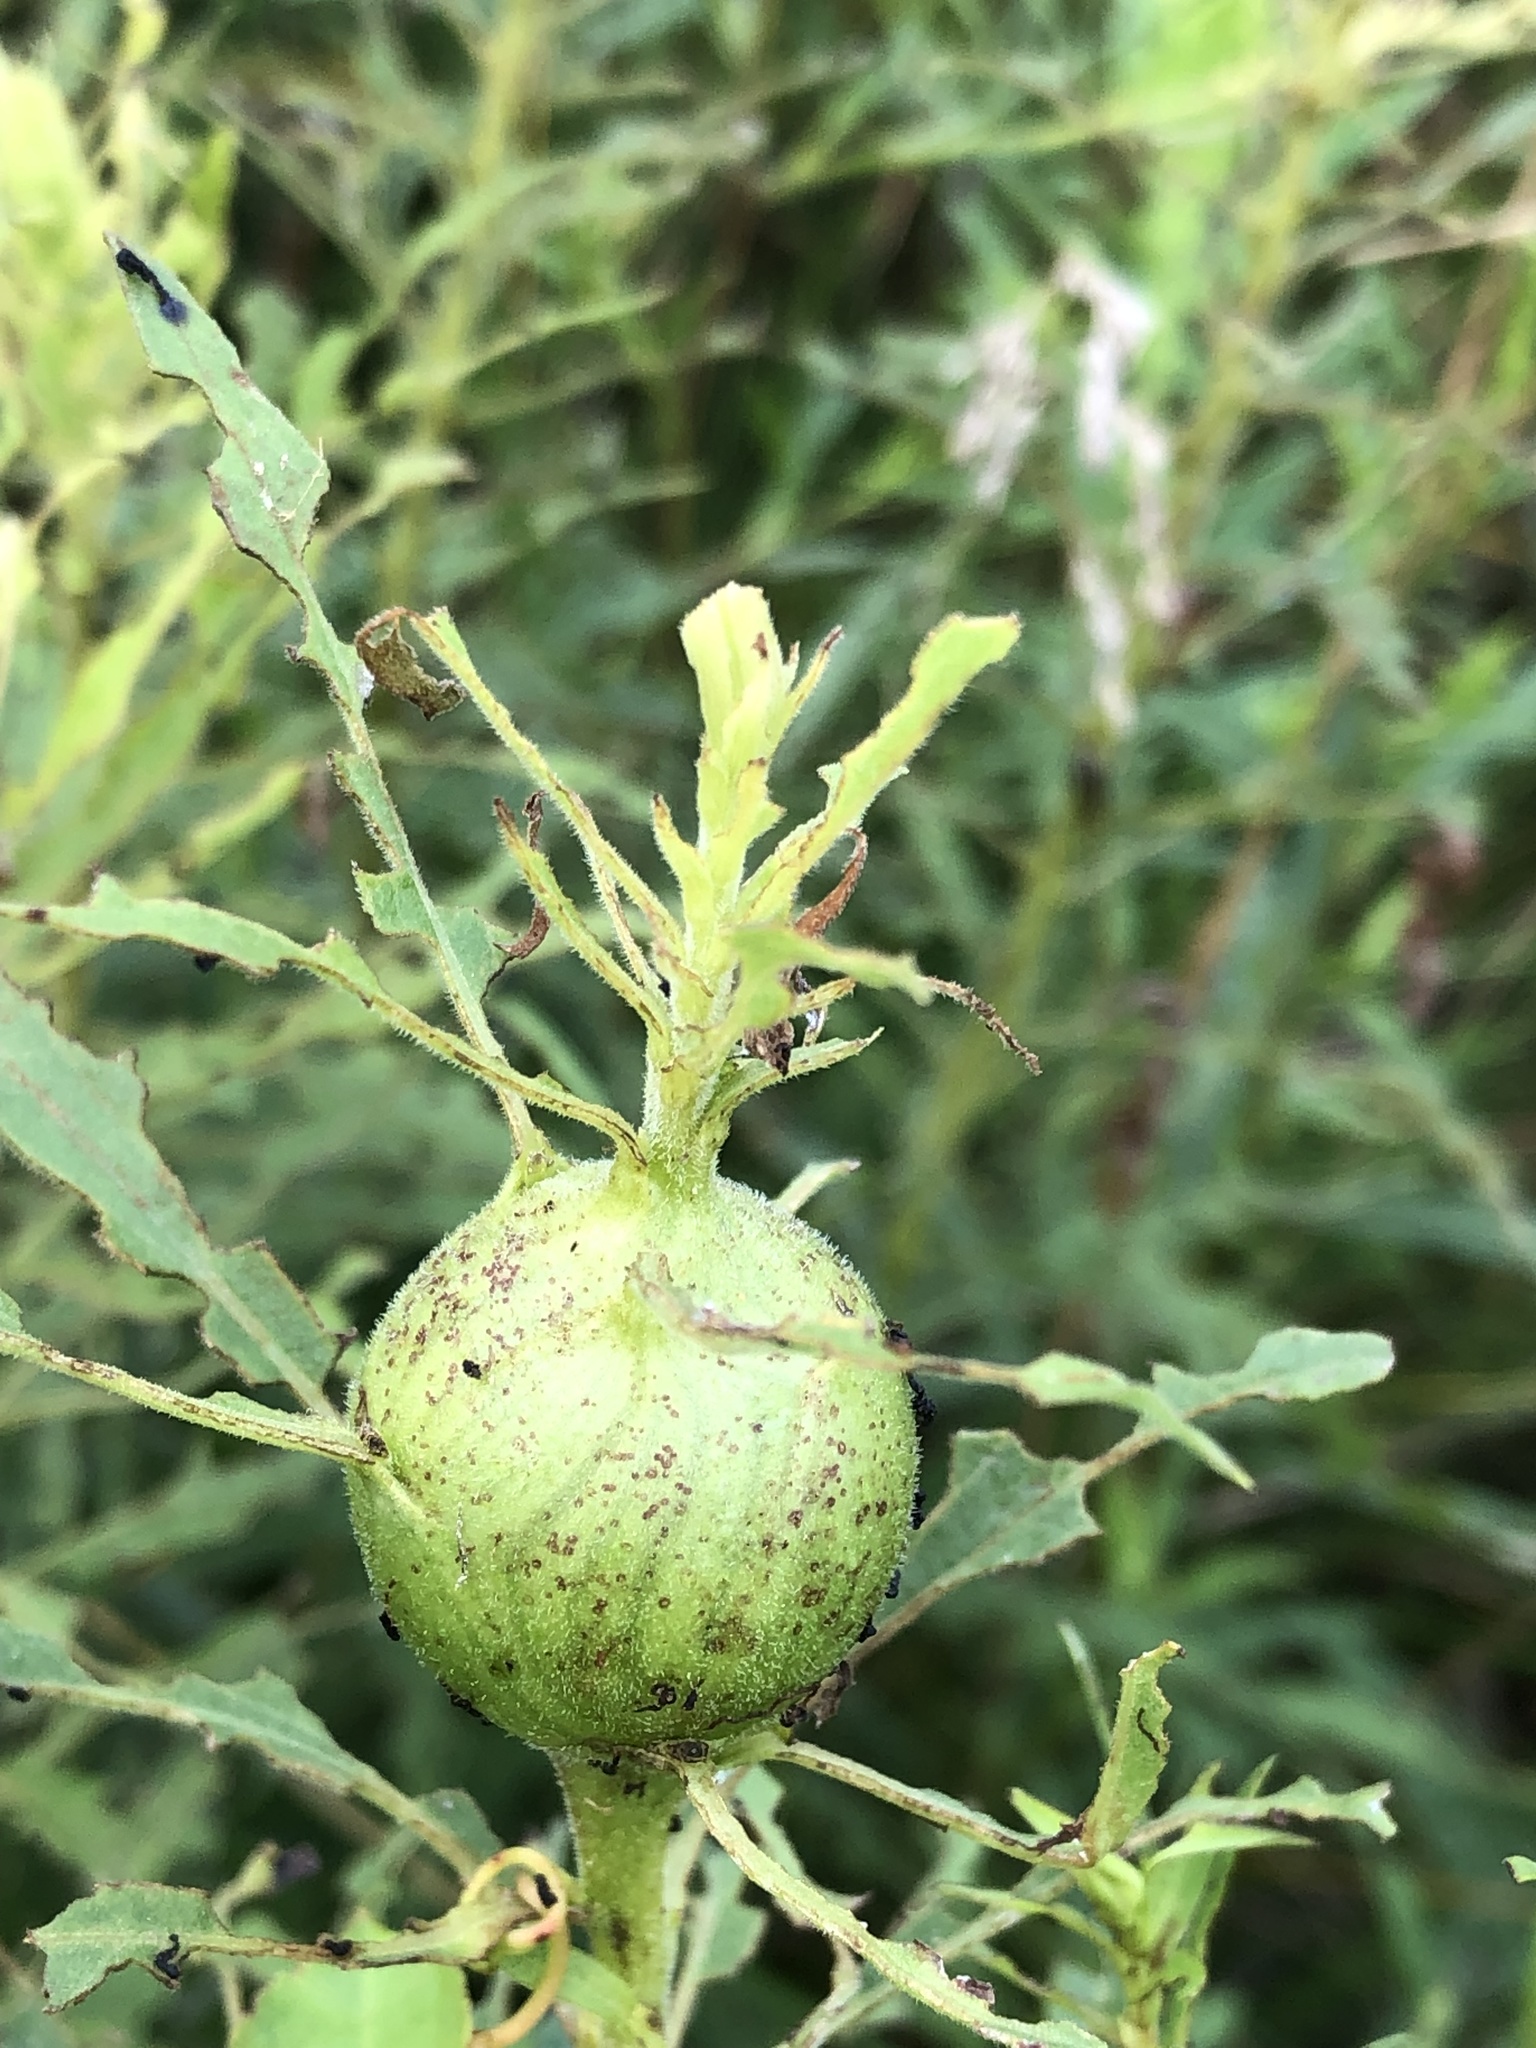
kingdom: Animalia
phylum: Arthropoda
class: Insecta
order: Diptera
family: Tephritidae
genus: Eurosta
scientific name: Eurosta solidaginis
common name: Goldenrod gall fly
